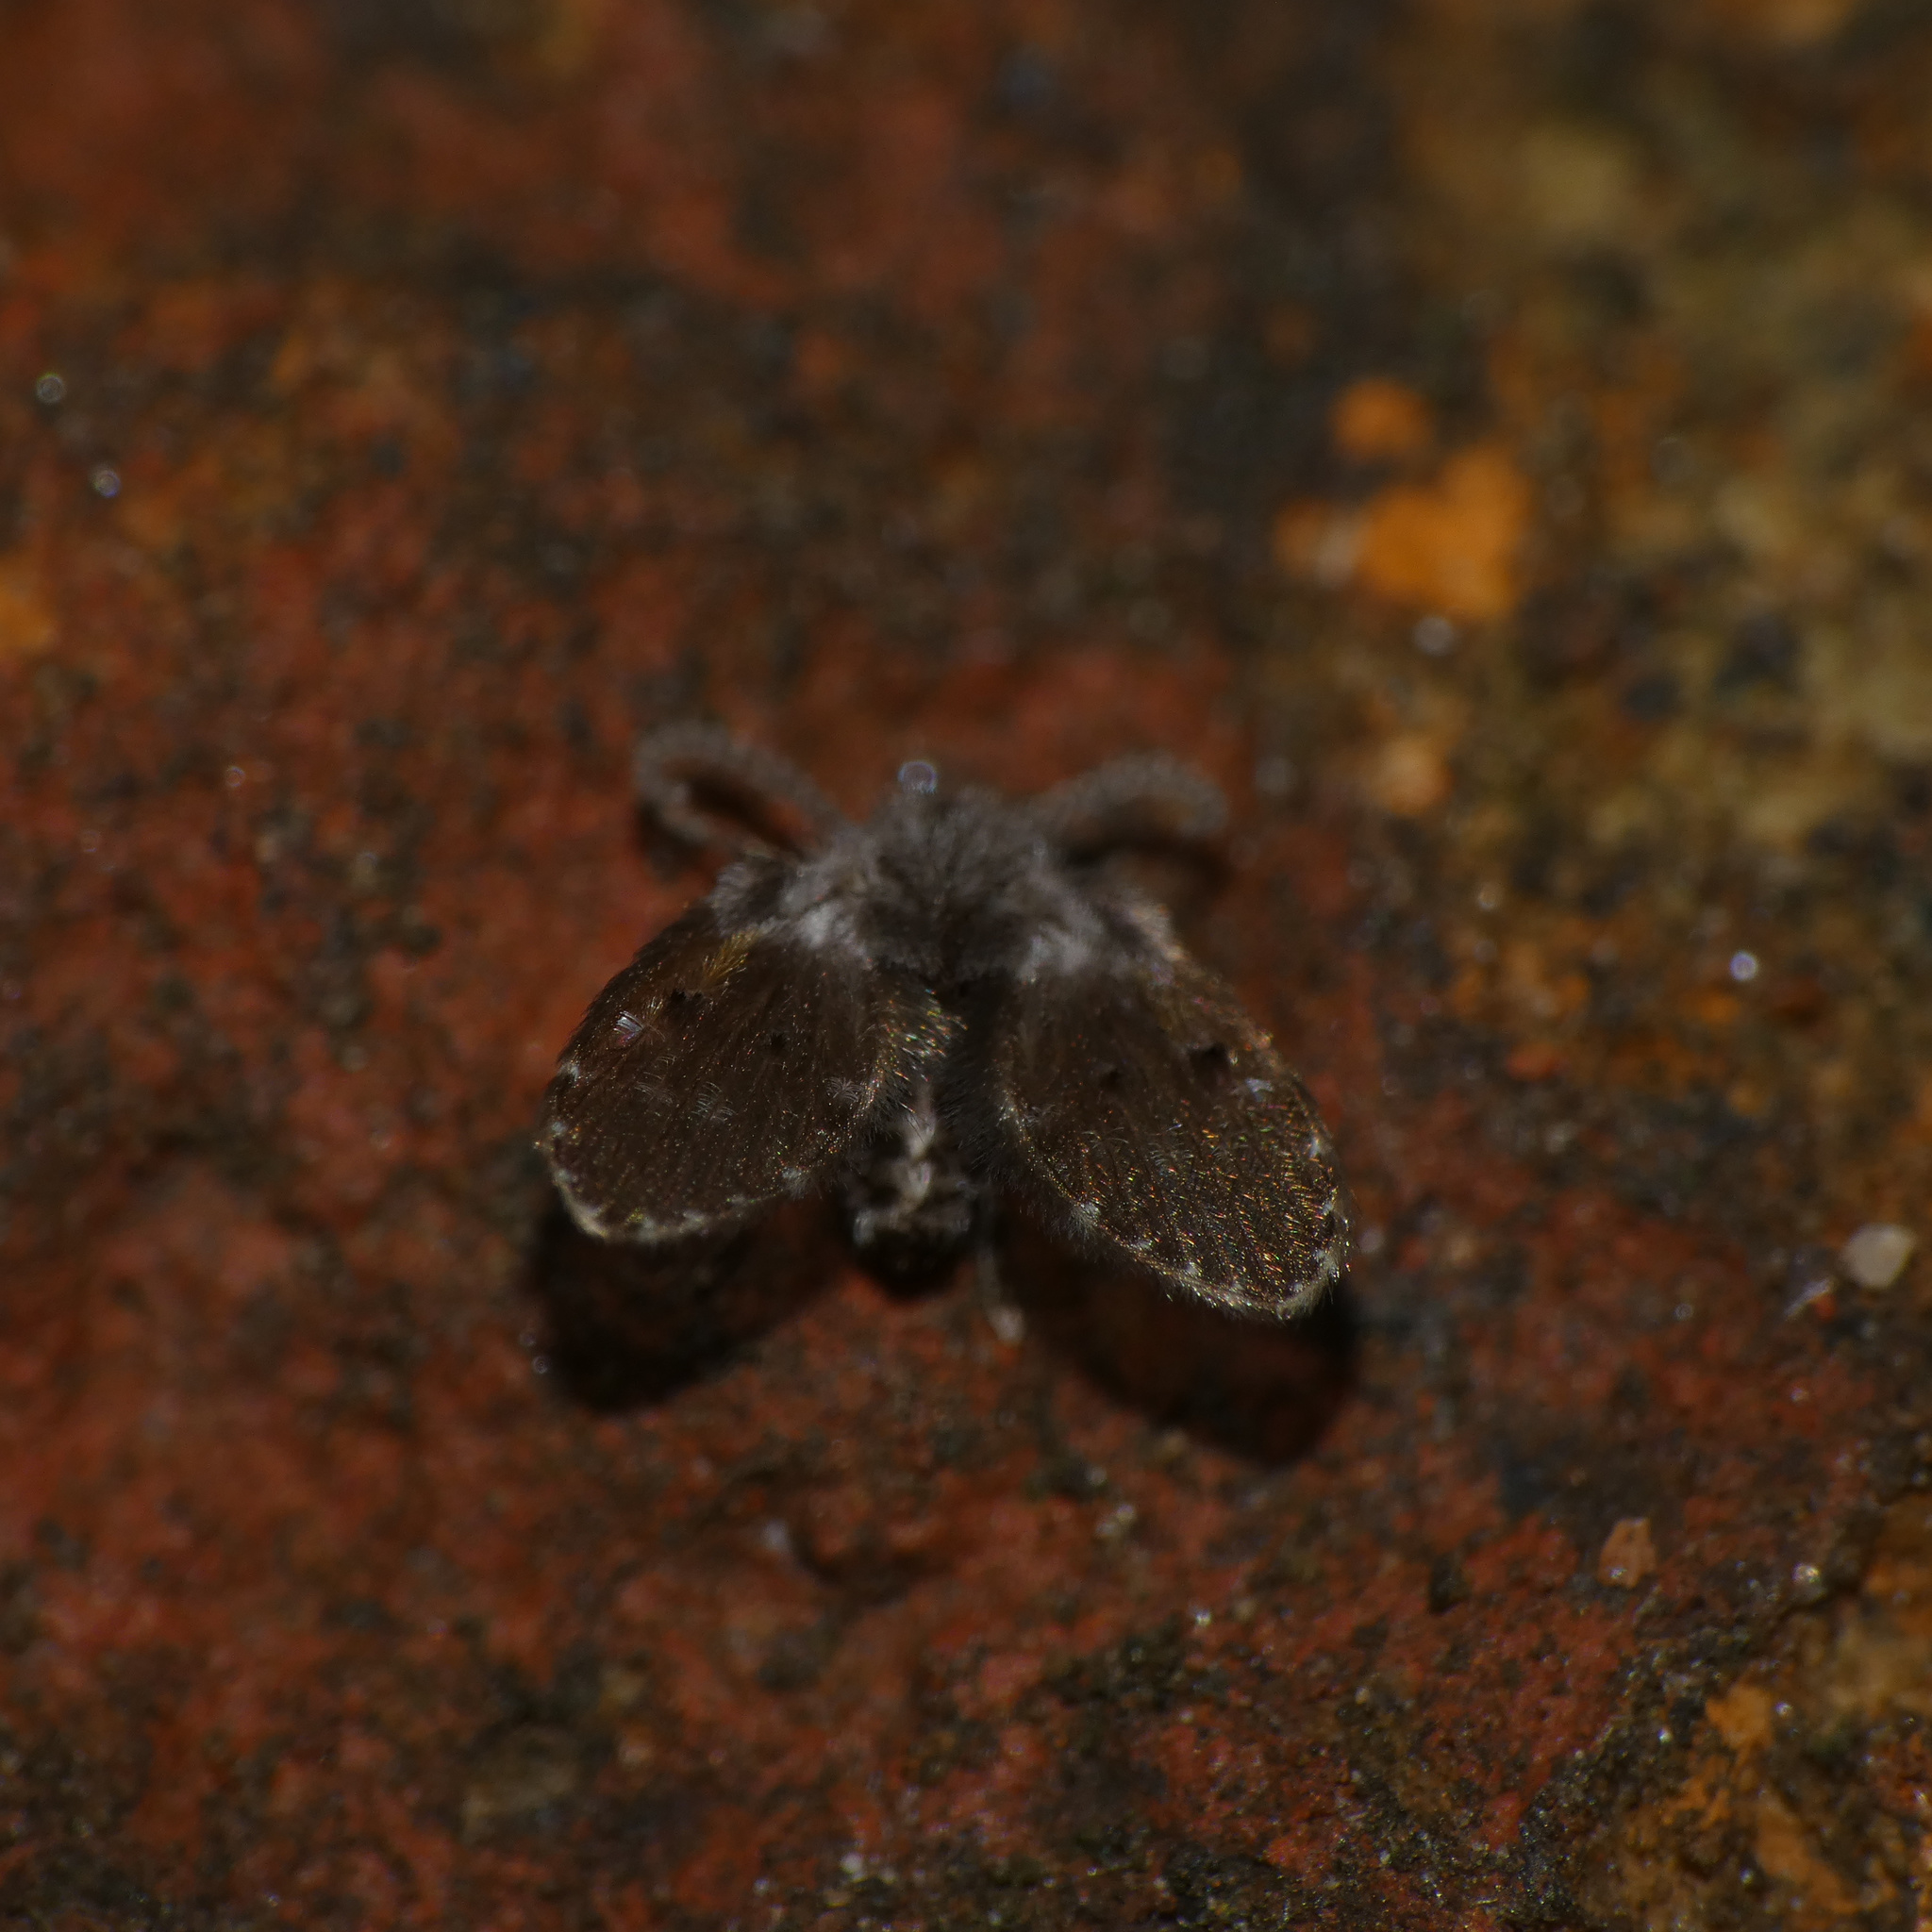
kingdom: Animalia
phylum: Arthropoda
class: Insecta
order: Diptera
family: Psychodidae
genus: Clogmia
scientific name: Clogmia albipunctatus
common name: White-spotted moth fly
